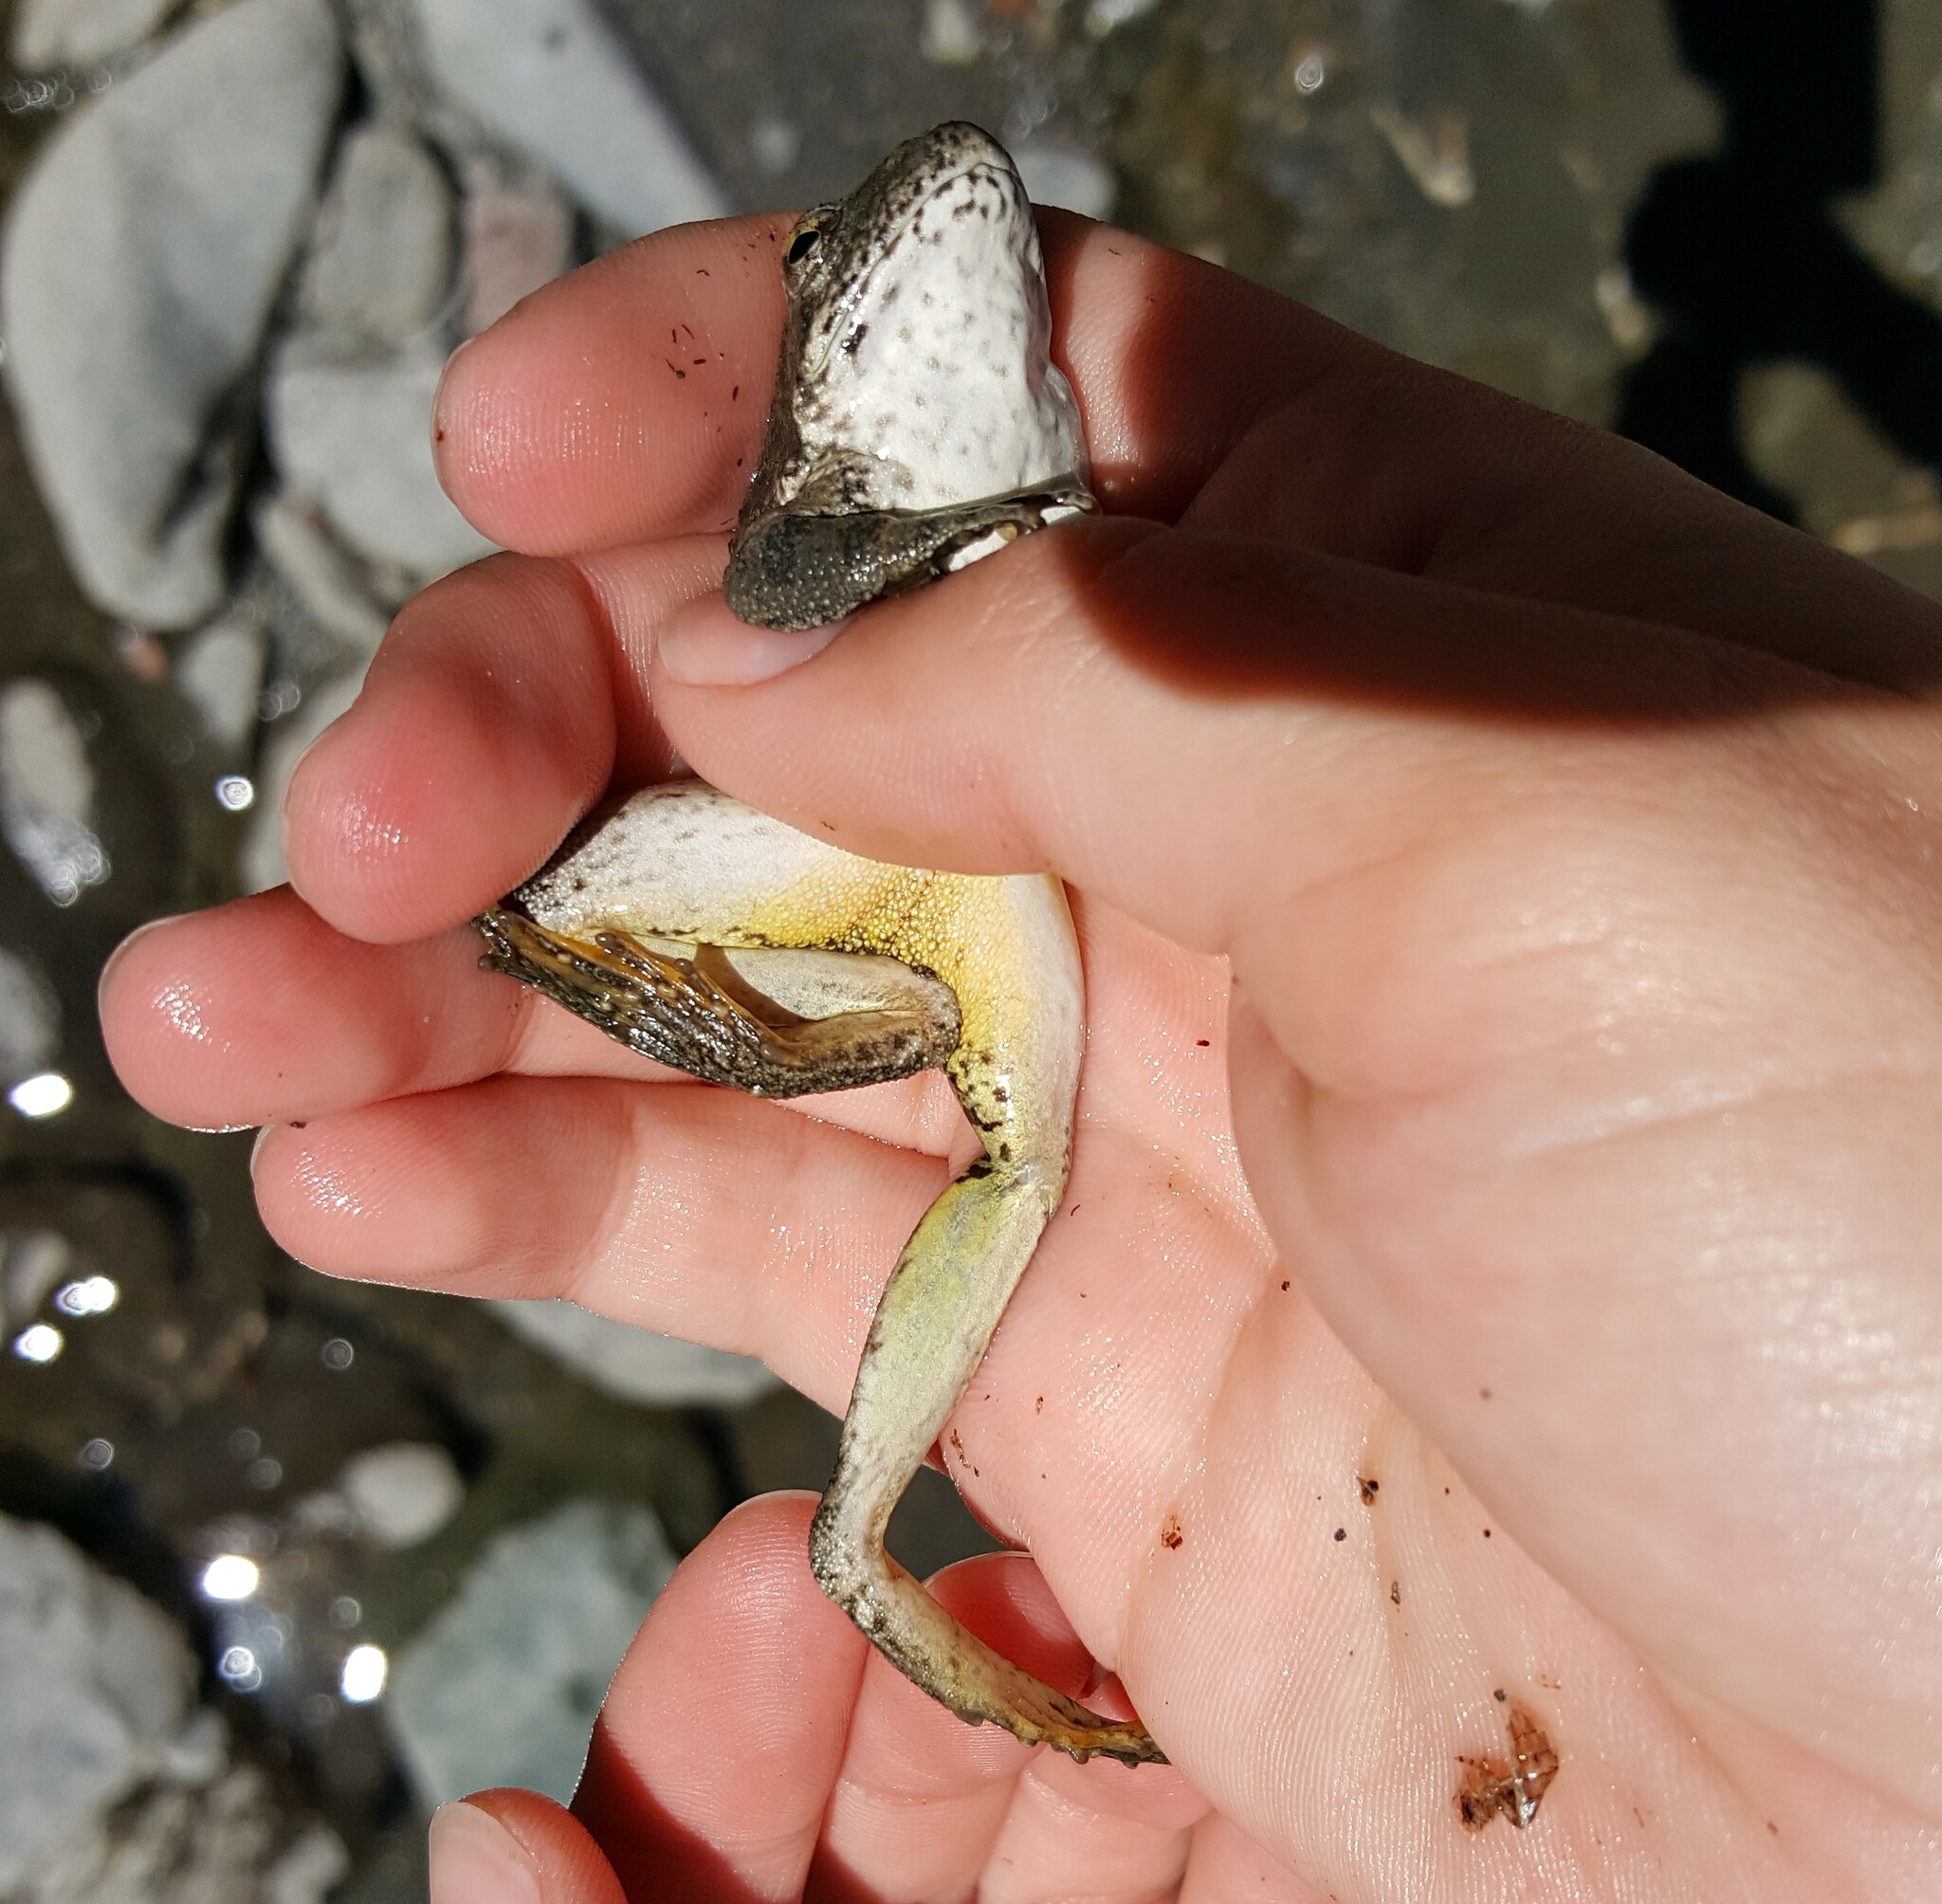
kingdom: Animalia
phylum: Chordata
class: Amphibia
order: Anura
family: Ranidae
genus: Rana
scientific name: Rana boylii
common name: Foothill yellow-legged frog
